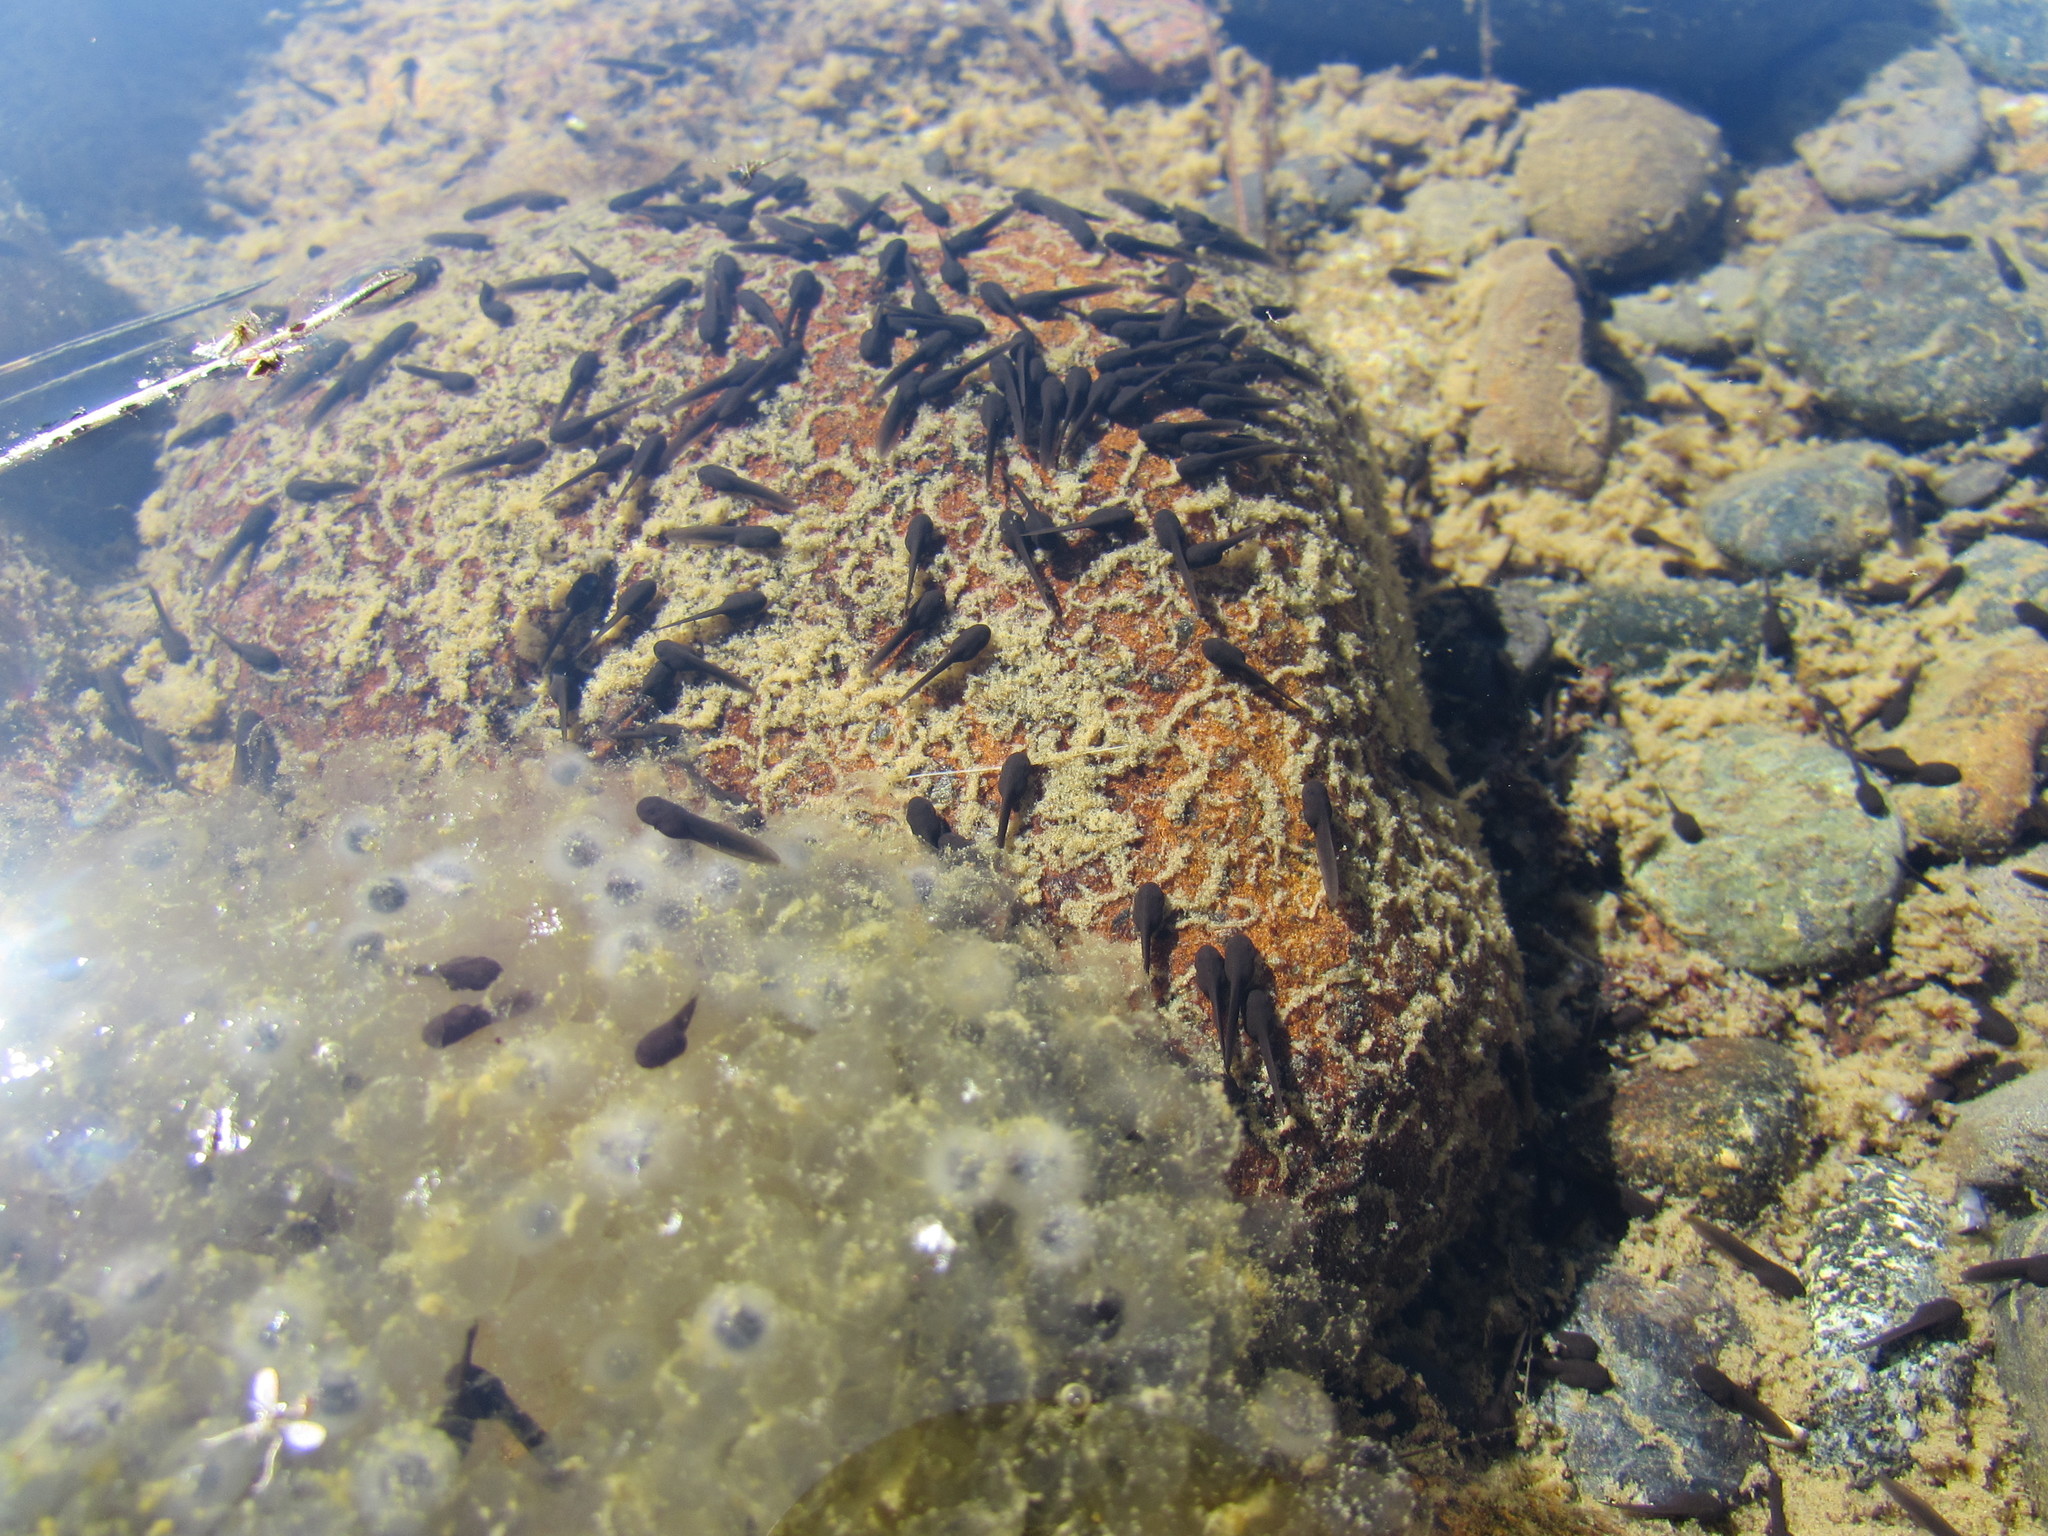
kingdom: Animalia
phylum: Chordata
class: Amphibia
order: Anura
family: Ranidae
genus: Rana
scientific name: Rana boylii
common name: Foothill yellow-legged frog
